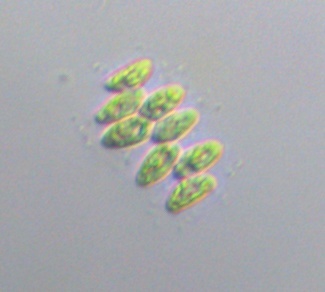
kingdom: Plantae
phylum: Chlorophyta
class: Chlorophyceae
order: Sphaeropleales
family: Scenedesmaceae
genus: Scenedesmus
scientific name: Scenedesmus obtusus
